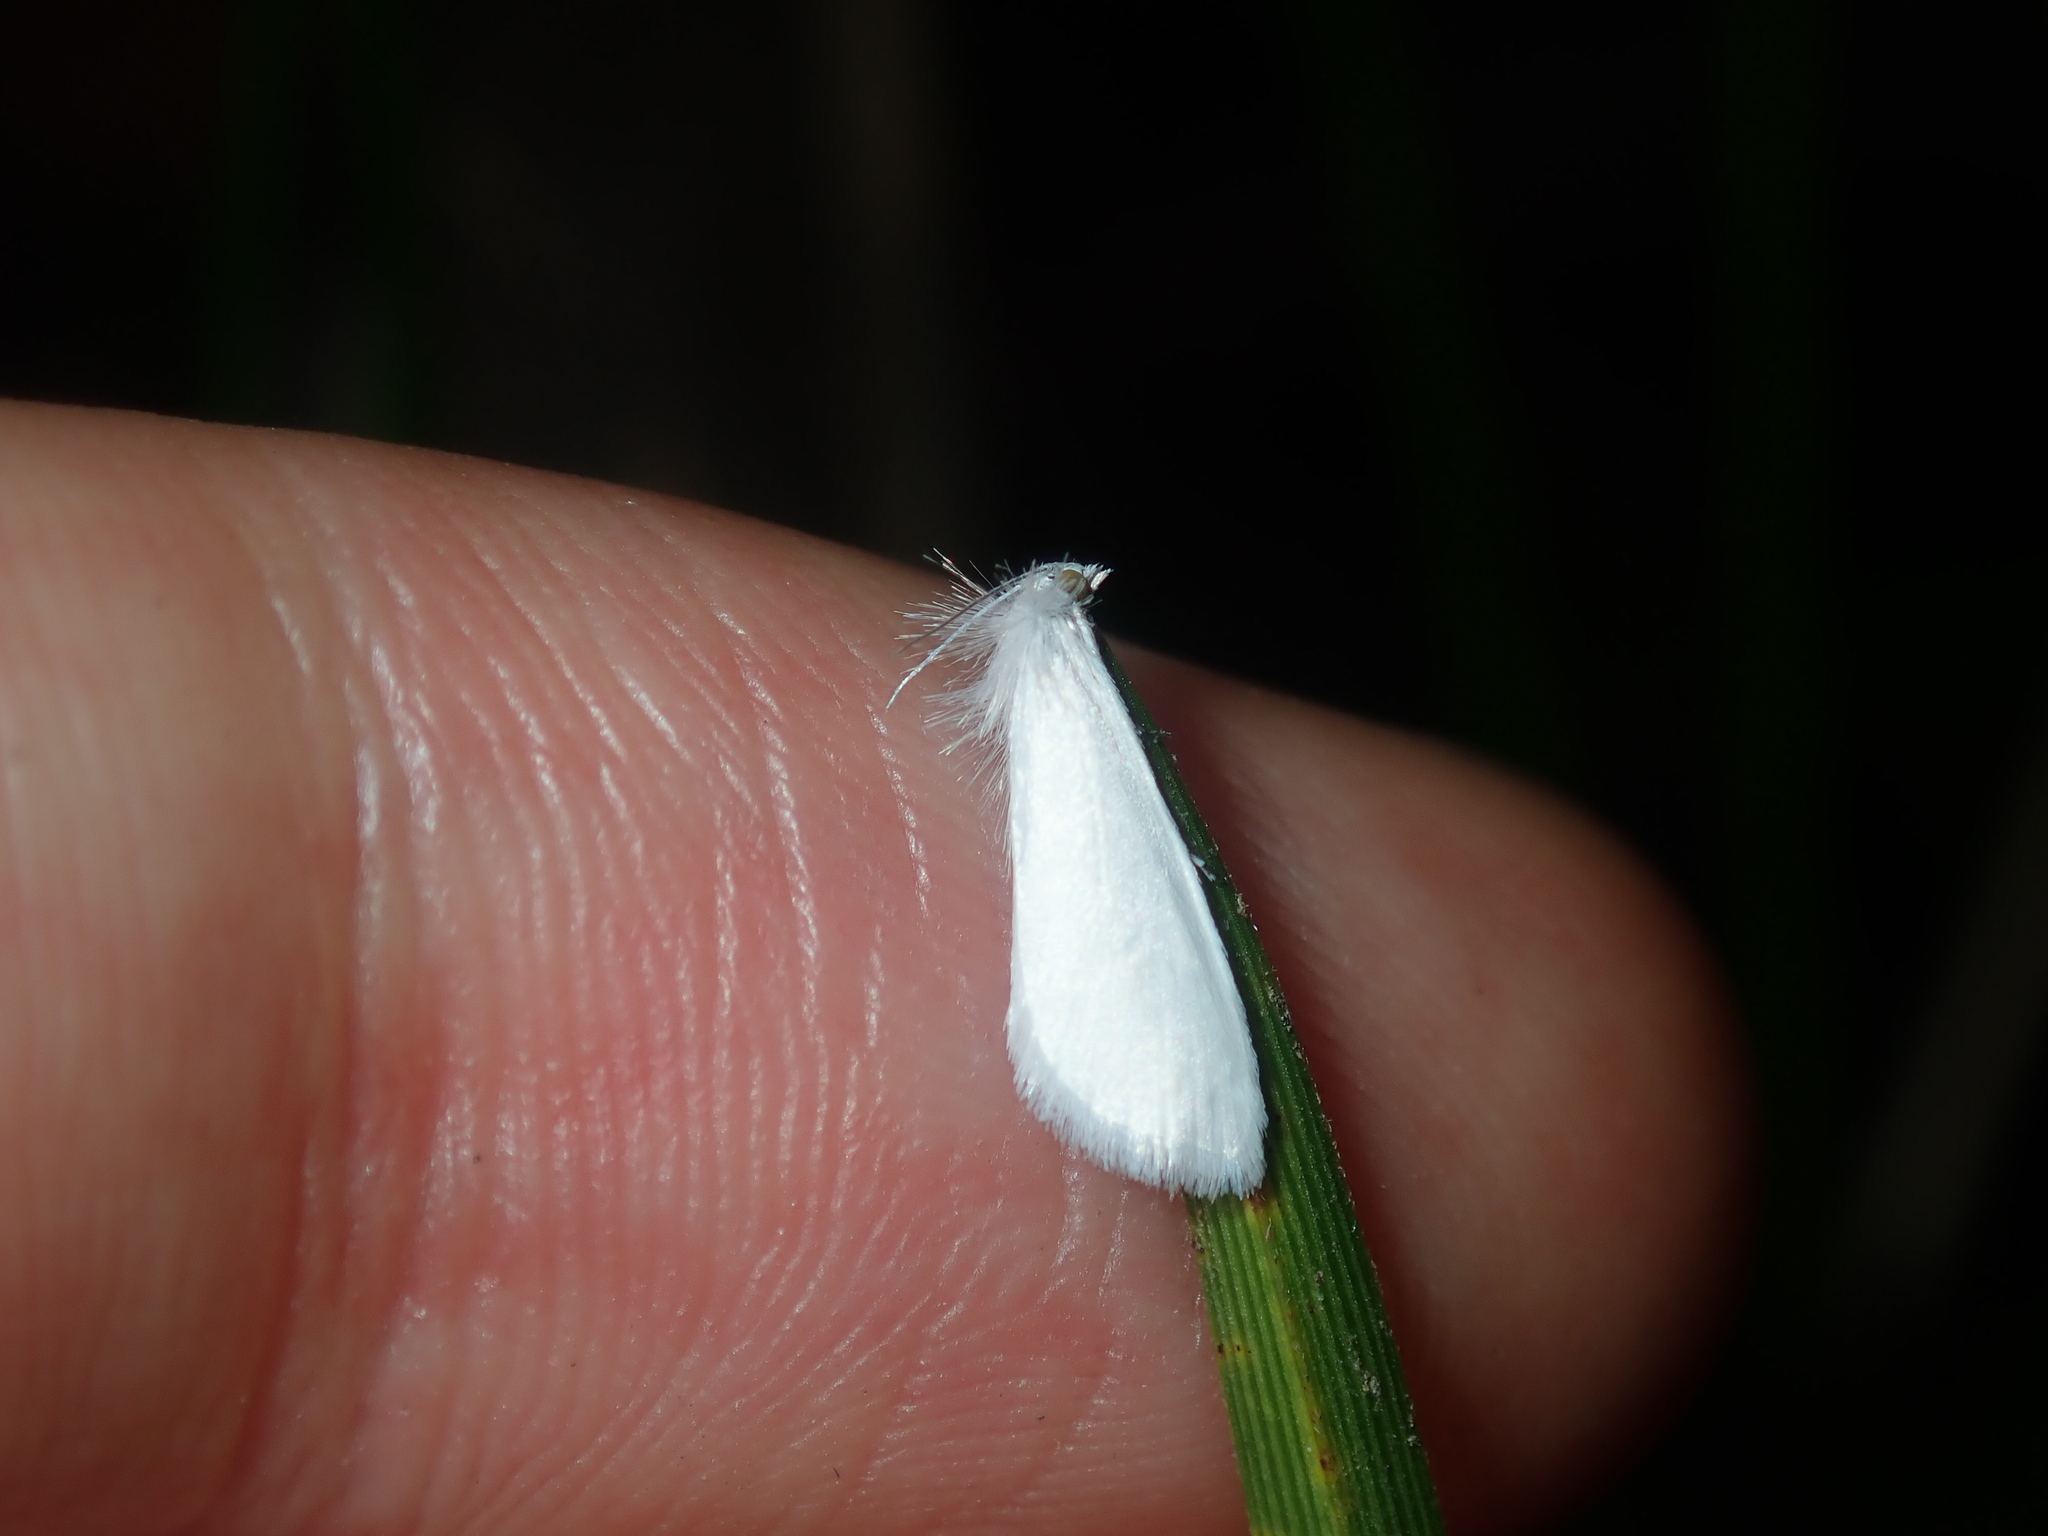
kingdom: Animalia
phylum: Arthropoda
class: Insecta
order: Lepidoptera
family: Crambidae
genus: Tipanaea
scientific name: Tipanaea patulella
